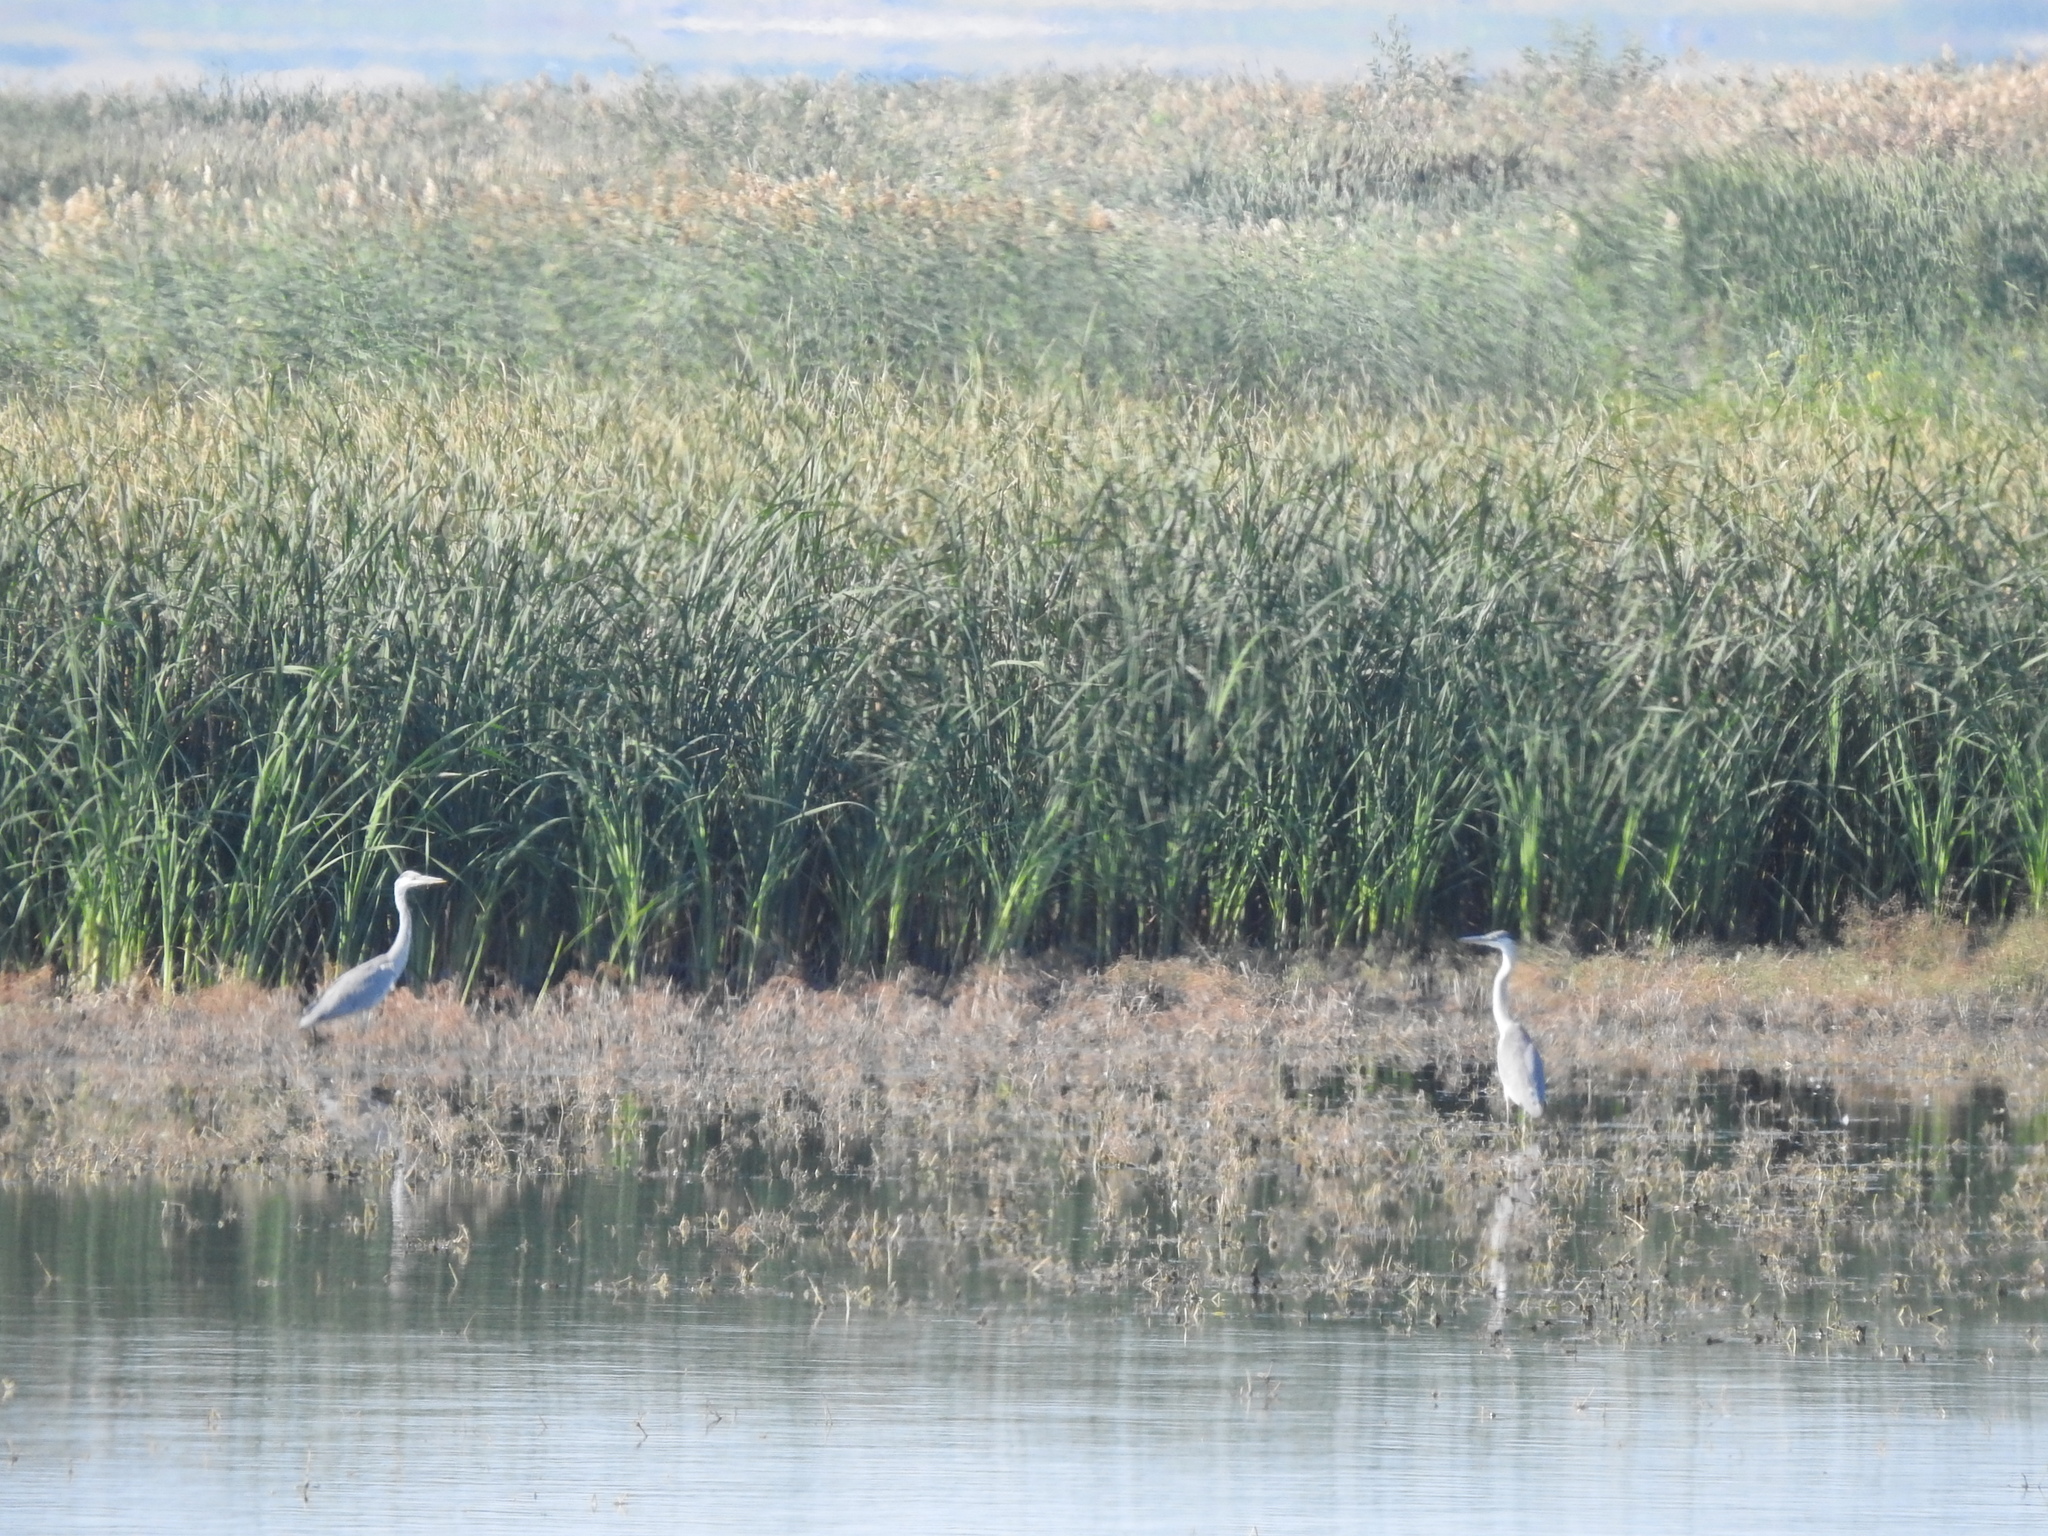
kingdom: Animalia
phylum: Chordata
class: Aves
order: Pelecaniformes
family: Ardeidae
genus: Ardea
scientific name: Ardea cinerea
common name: Grey heron
